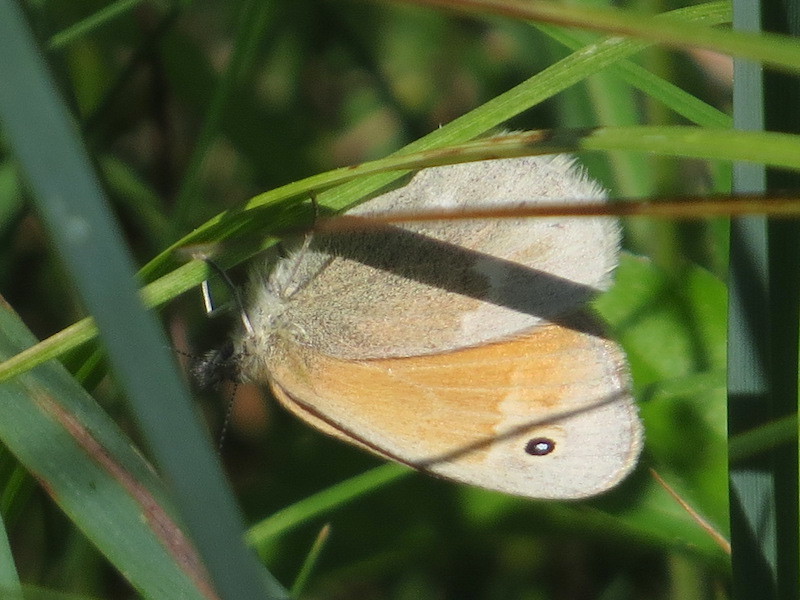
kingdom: Animalia
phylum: Arthropoda
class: Insecta
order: Lepidoptera
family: Nymphalidae
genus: Coenonympha
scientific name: Coenonympha california
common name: Common ringlet
